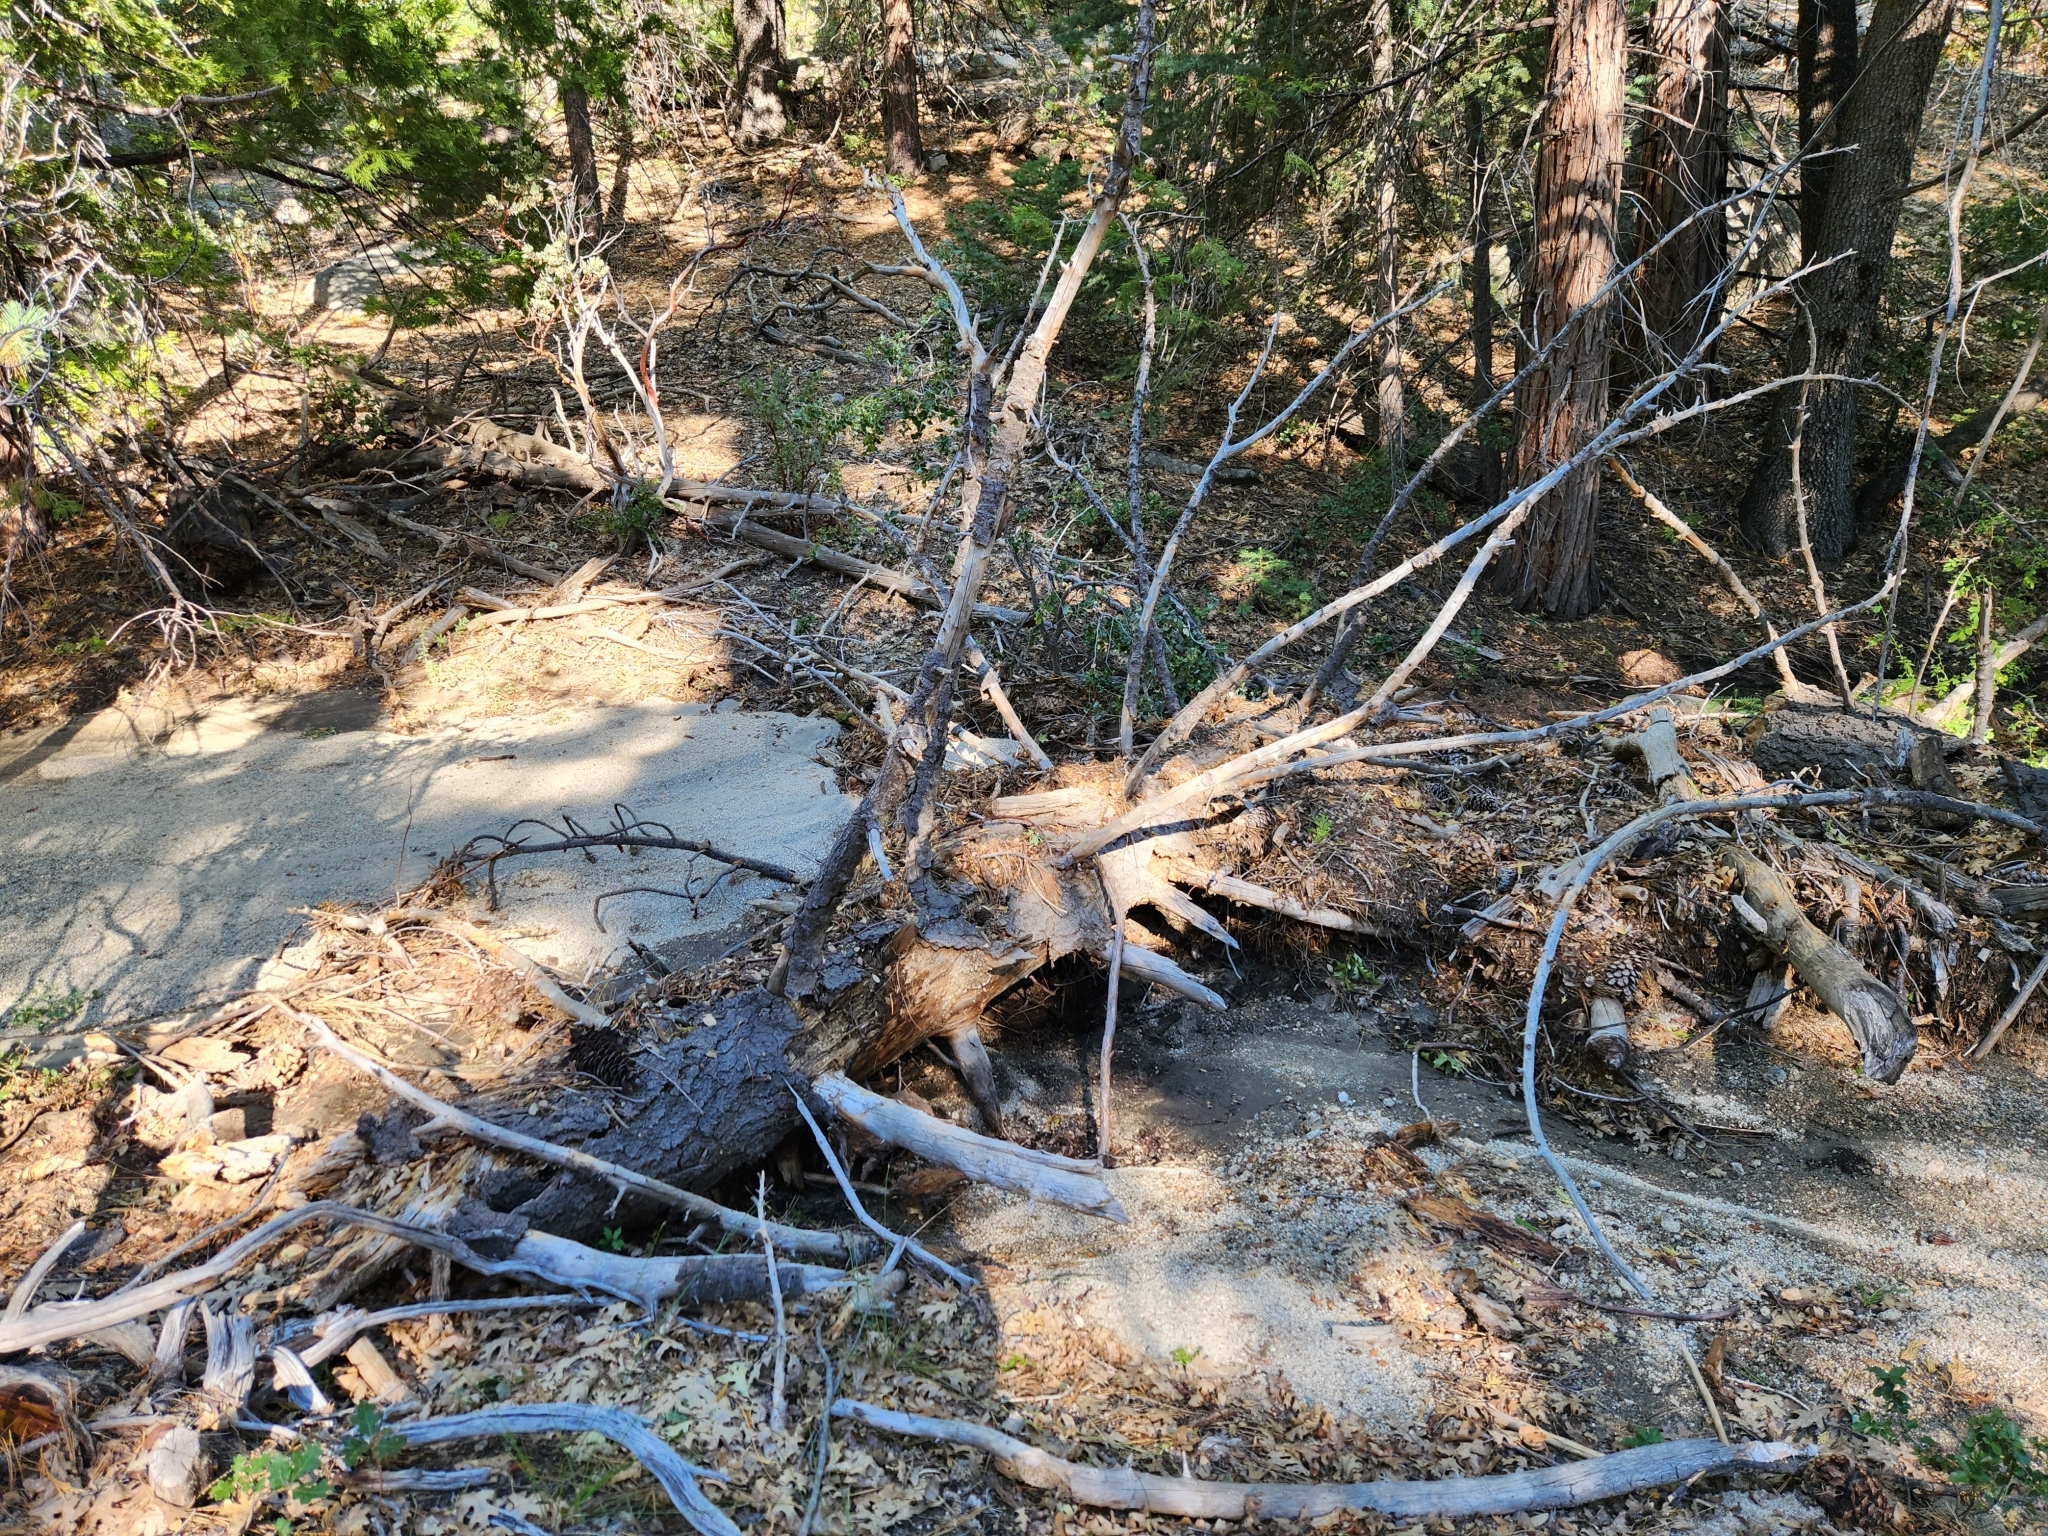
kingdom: Plantae
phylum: Tracheophyta
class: Liliopsida
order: Liliales
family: Liliaceae
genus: Lilium
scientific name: Lilium parryi
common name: Lemon lily
